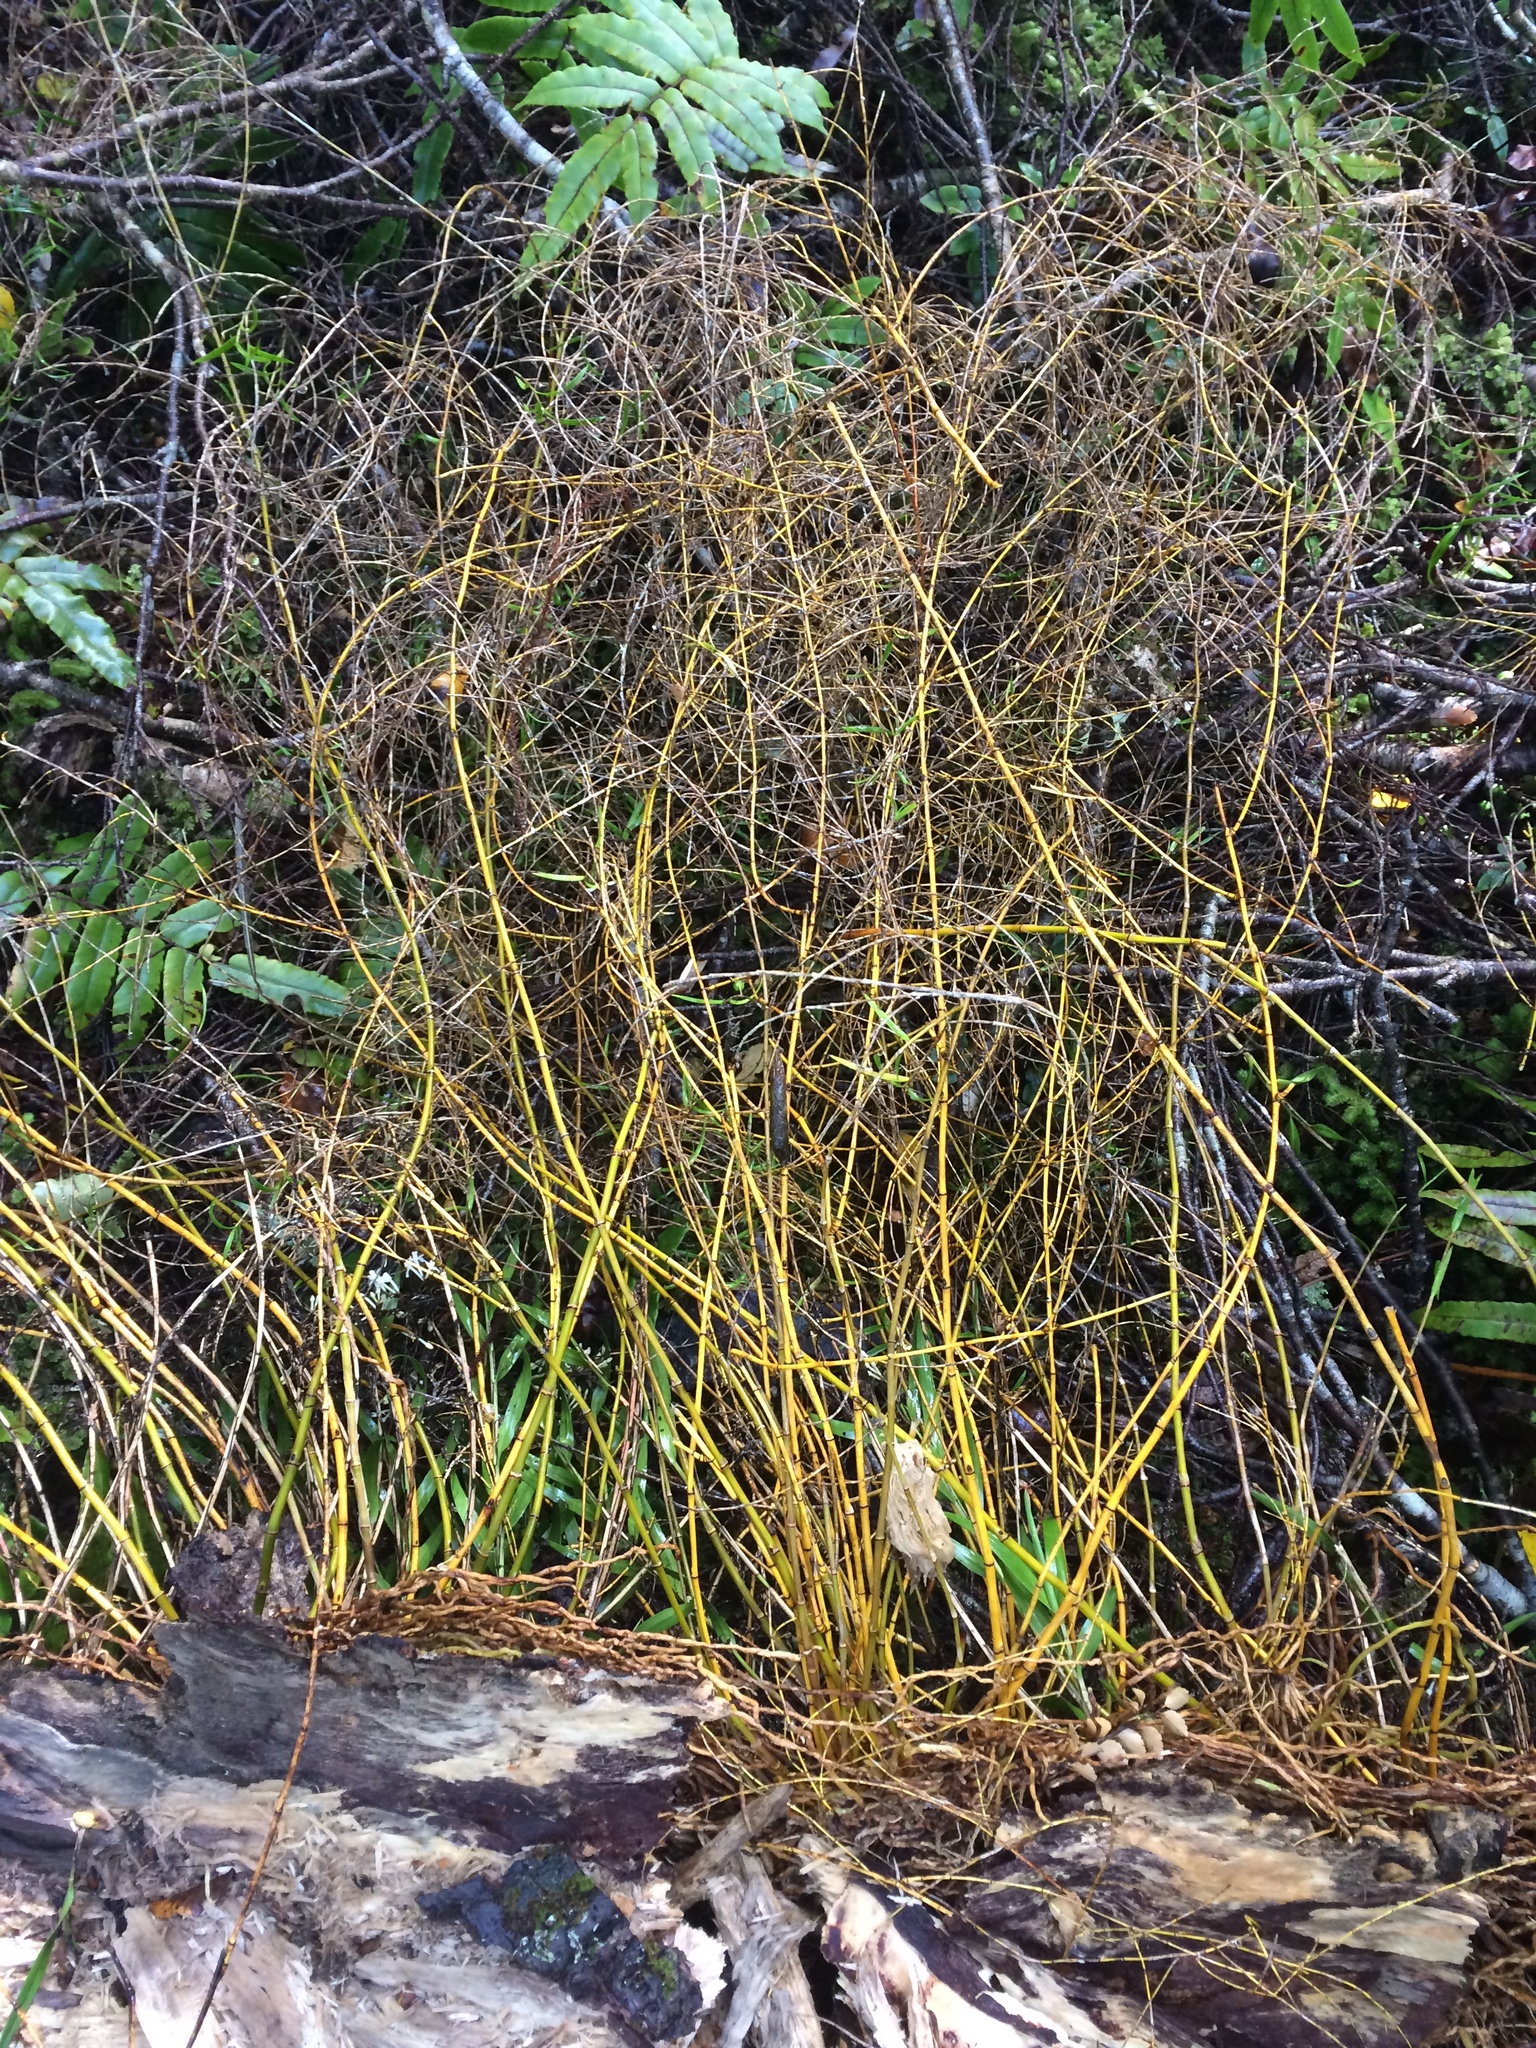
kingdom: Plantae
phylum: Tracheophyta
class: Liliopsida
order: Asparagales
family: Orchidaceae
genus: Dendrobium
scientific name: Dendrobium cunninghamii
